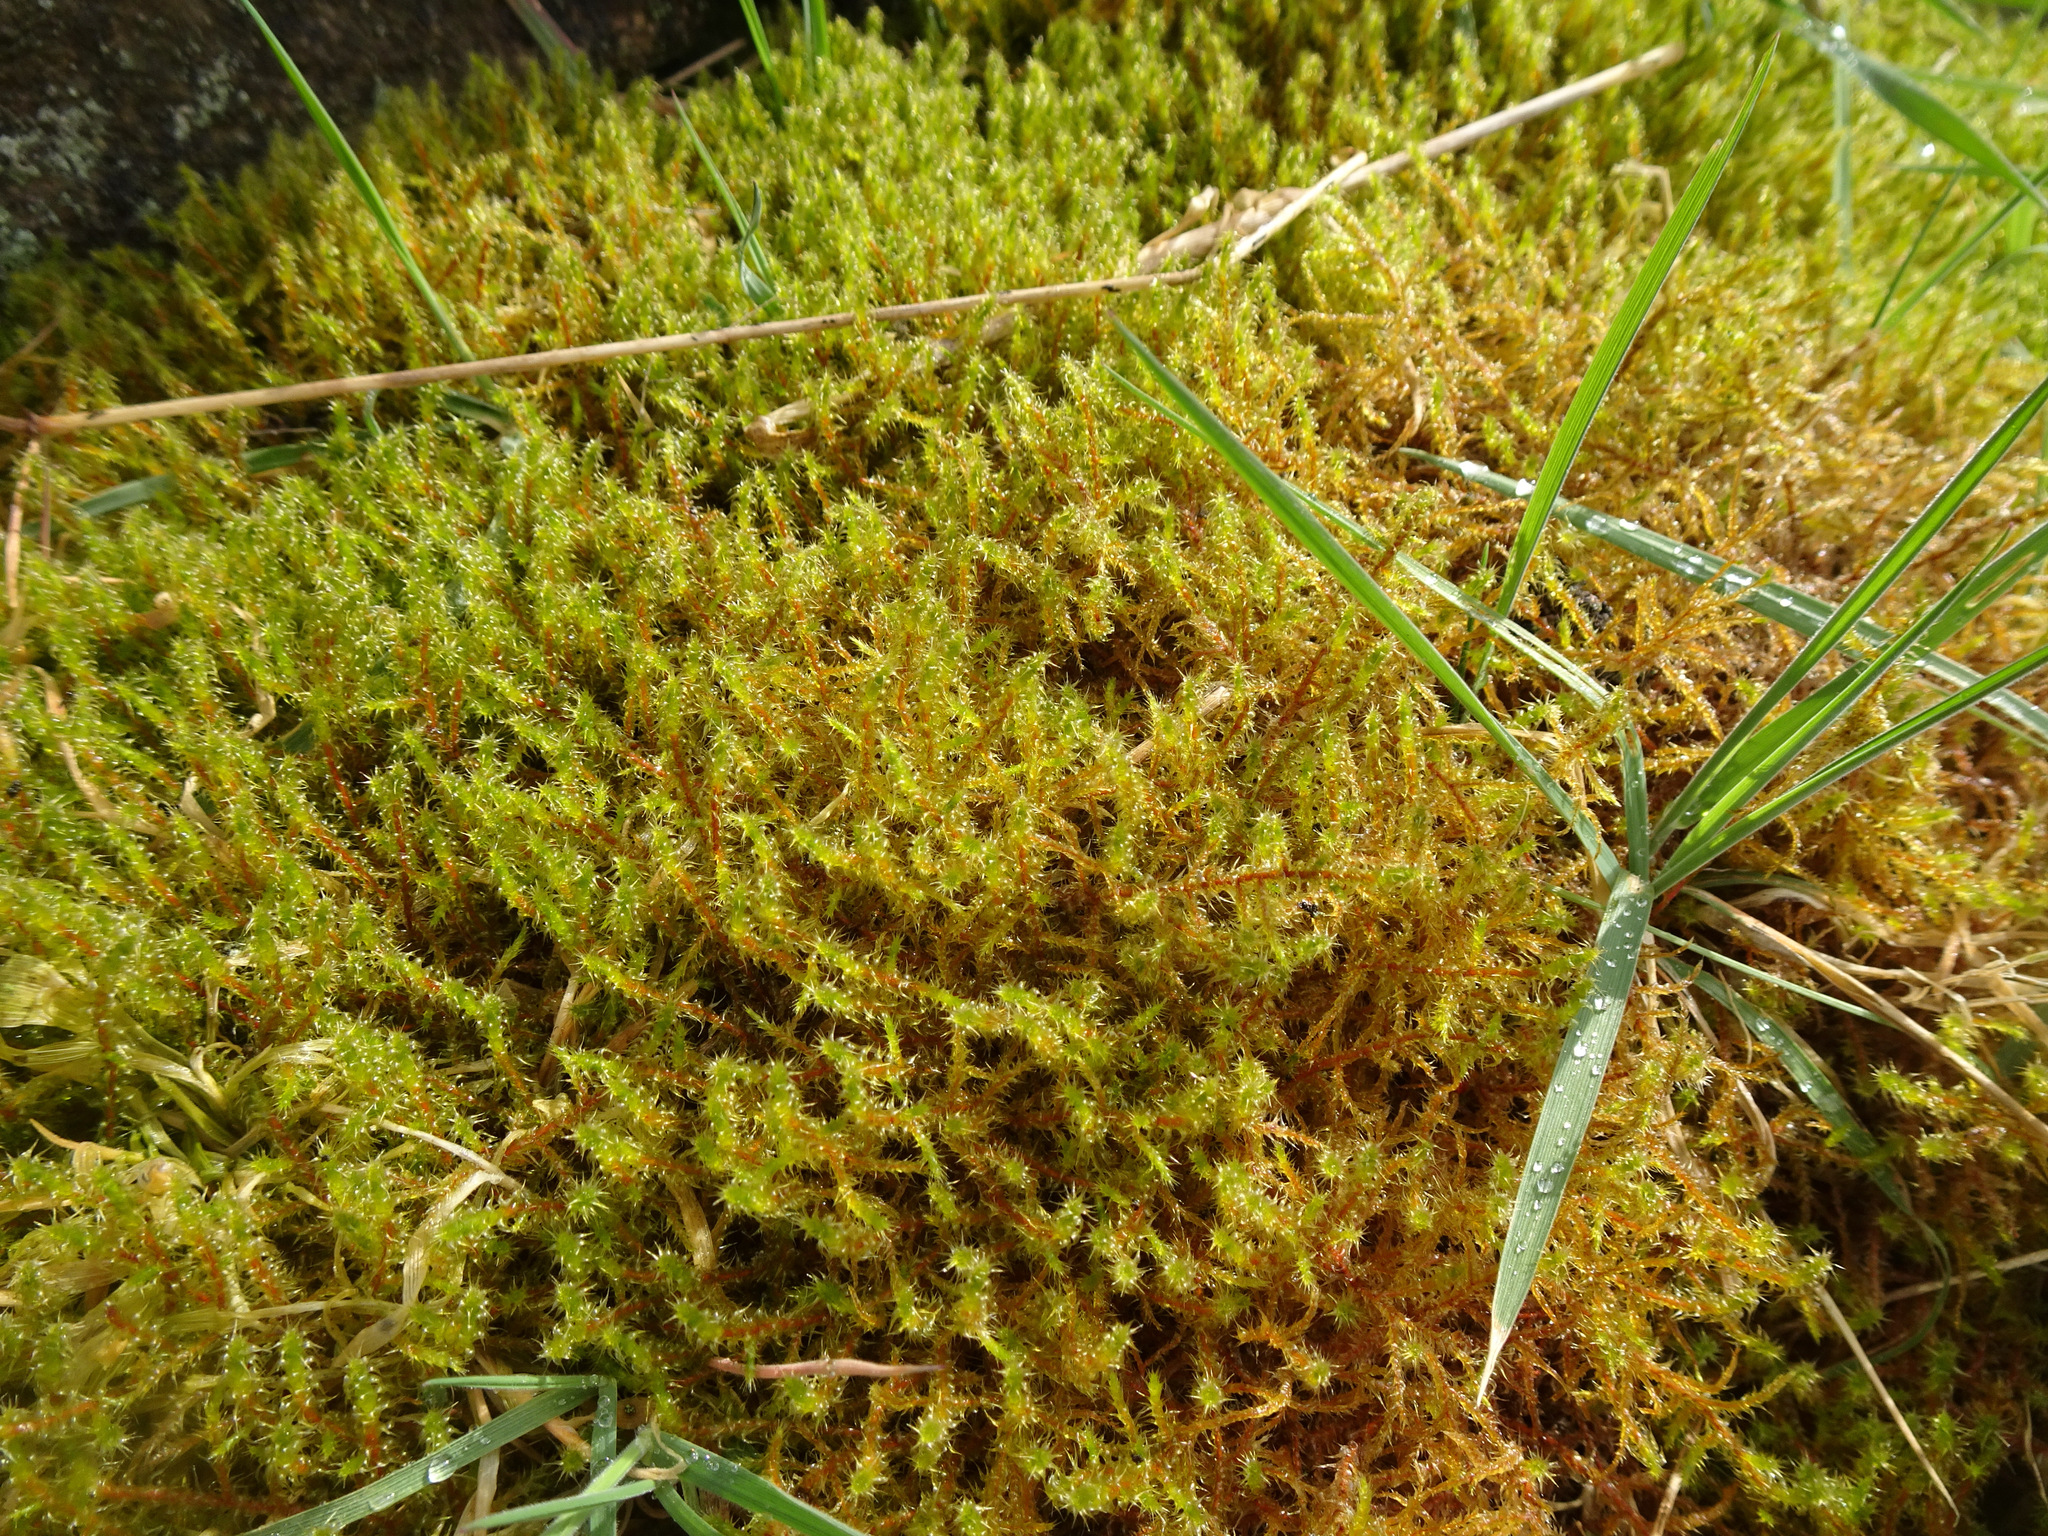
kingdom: Plantae
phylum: Bryophyta
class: Bryopsida
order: Hypnales
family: Hylocomiaceae
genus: Rhytidiadelphus
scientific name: Rhytidiadelphus squarrosus
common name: Springy turf-moss
